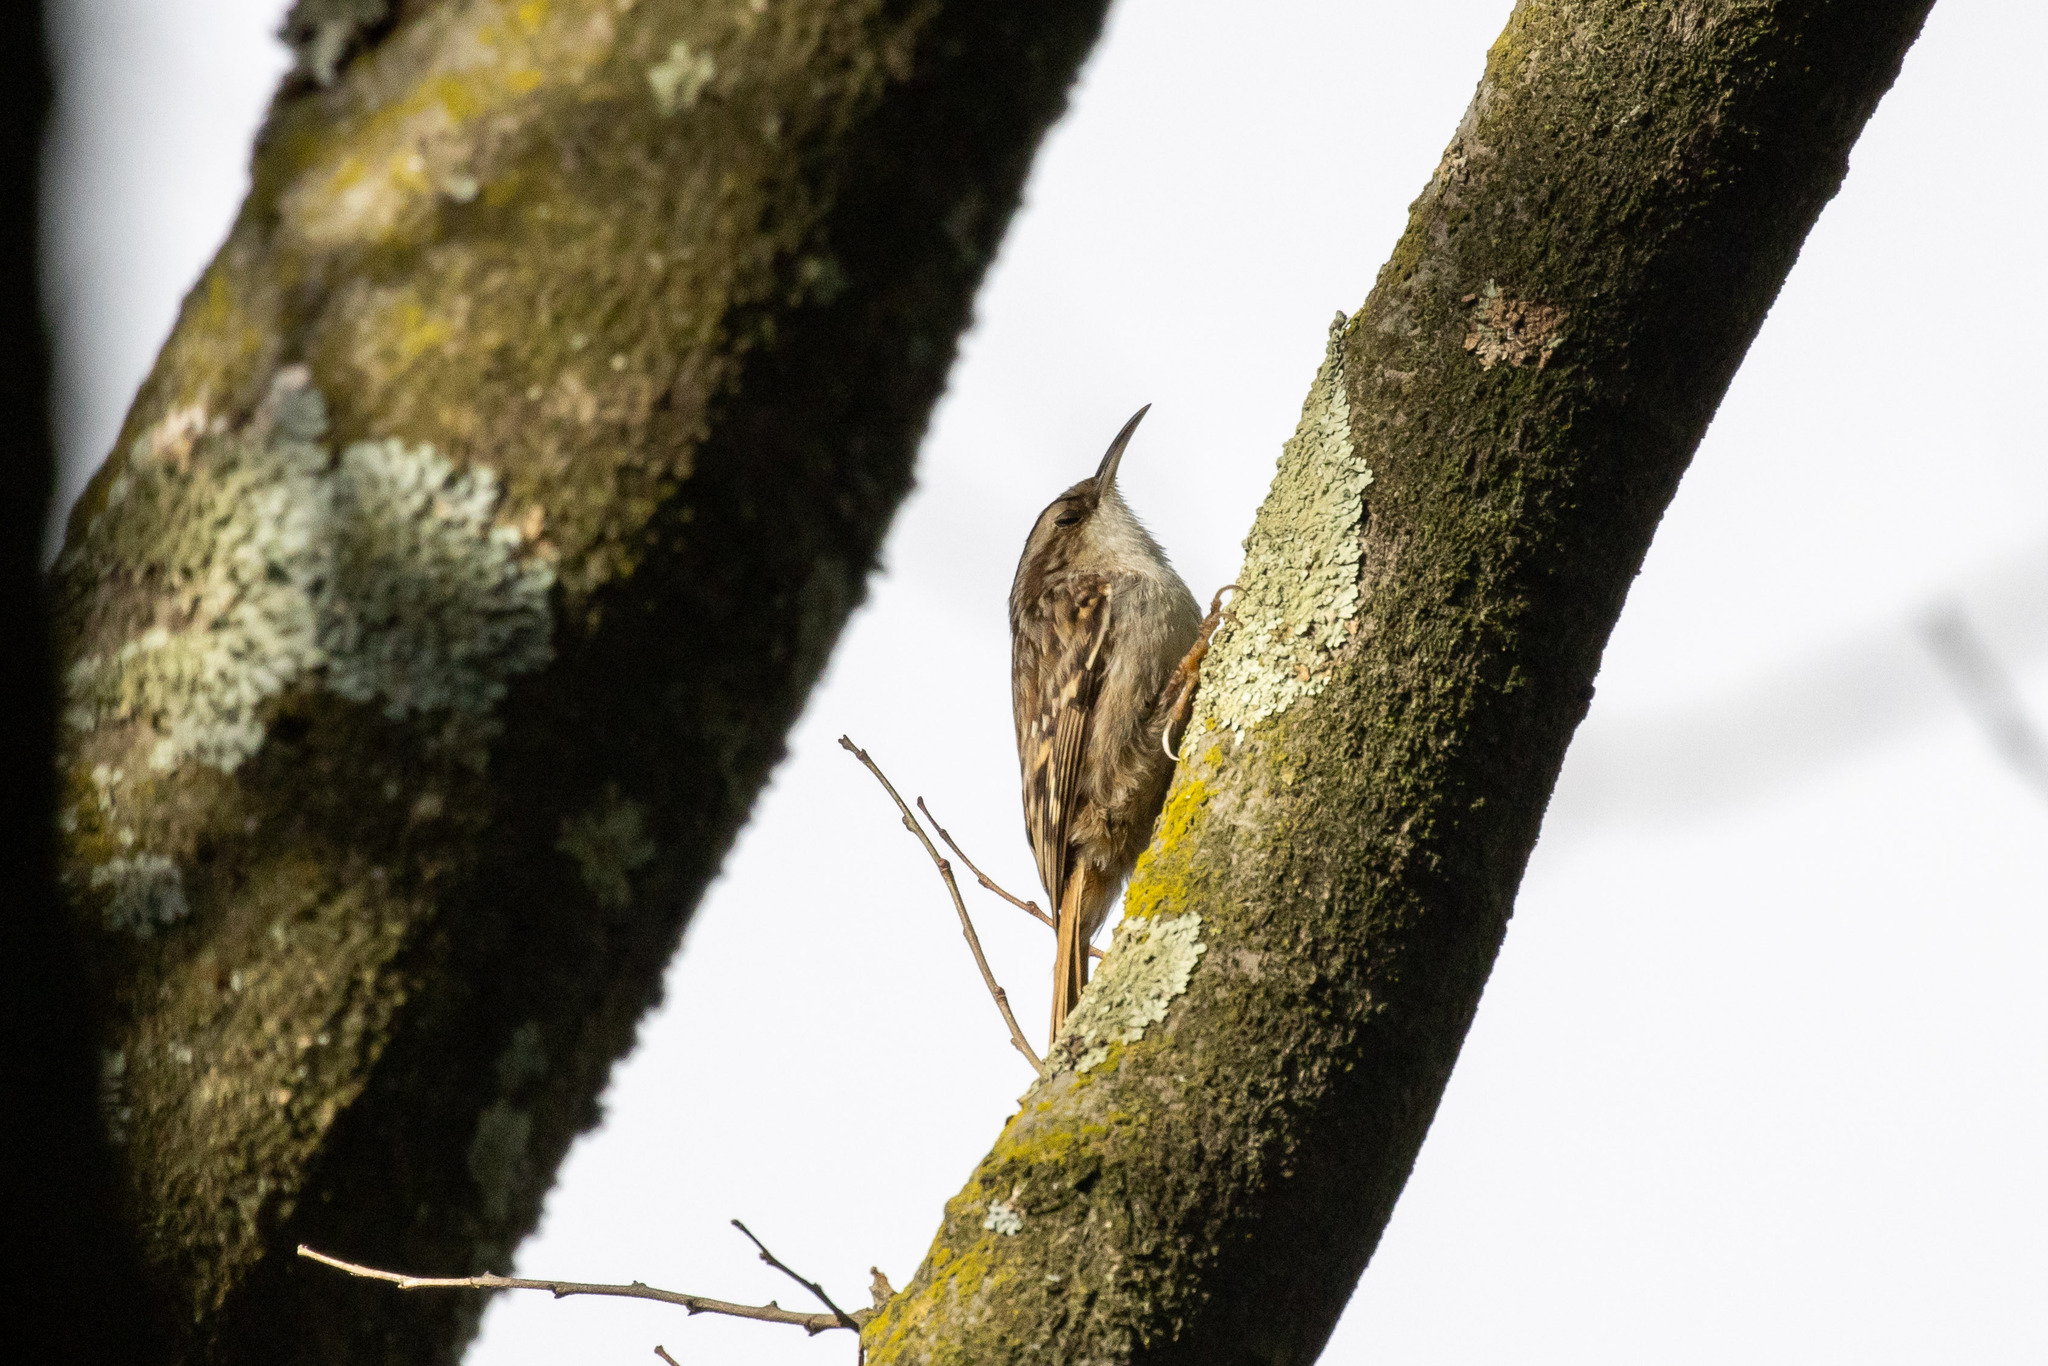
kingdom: Animalia
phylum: Chordata
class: Aves
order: Passeriformes
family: Certhiidae
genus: Certhia
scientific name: Certhia brachydactyla
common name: Short-toed treecreeper
